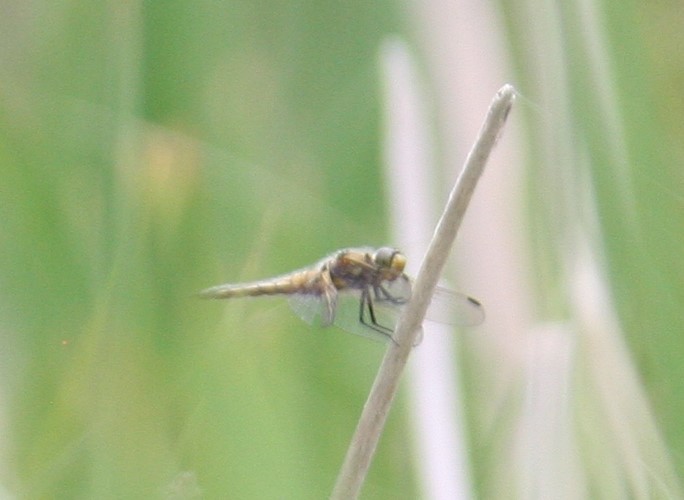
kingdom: Animalia
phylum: Arthropoda
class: Insecta
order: Odonata
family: Libellulidae
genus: Libellula
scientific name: Libellula quadrimaculata
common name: Four-spotted chaser
